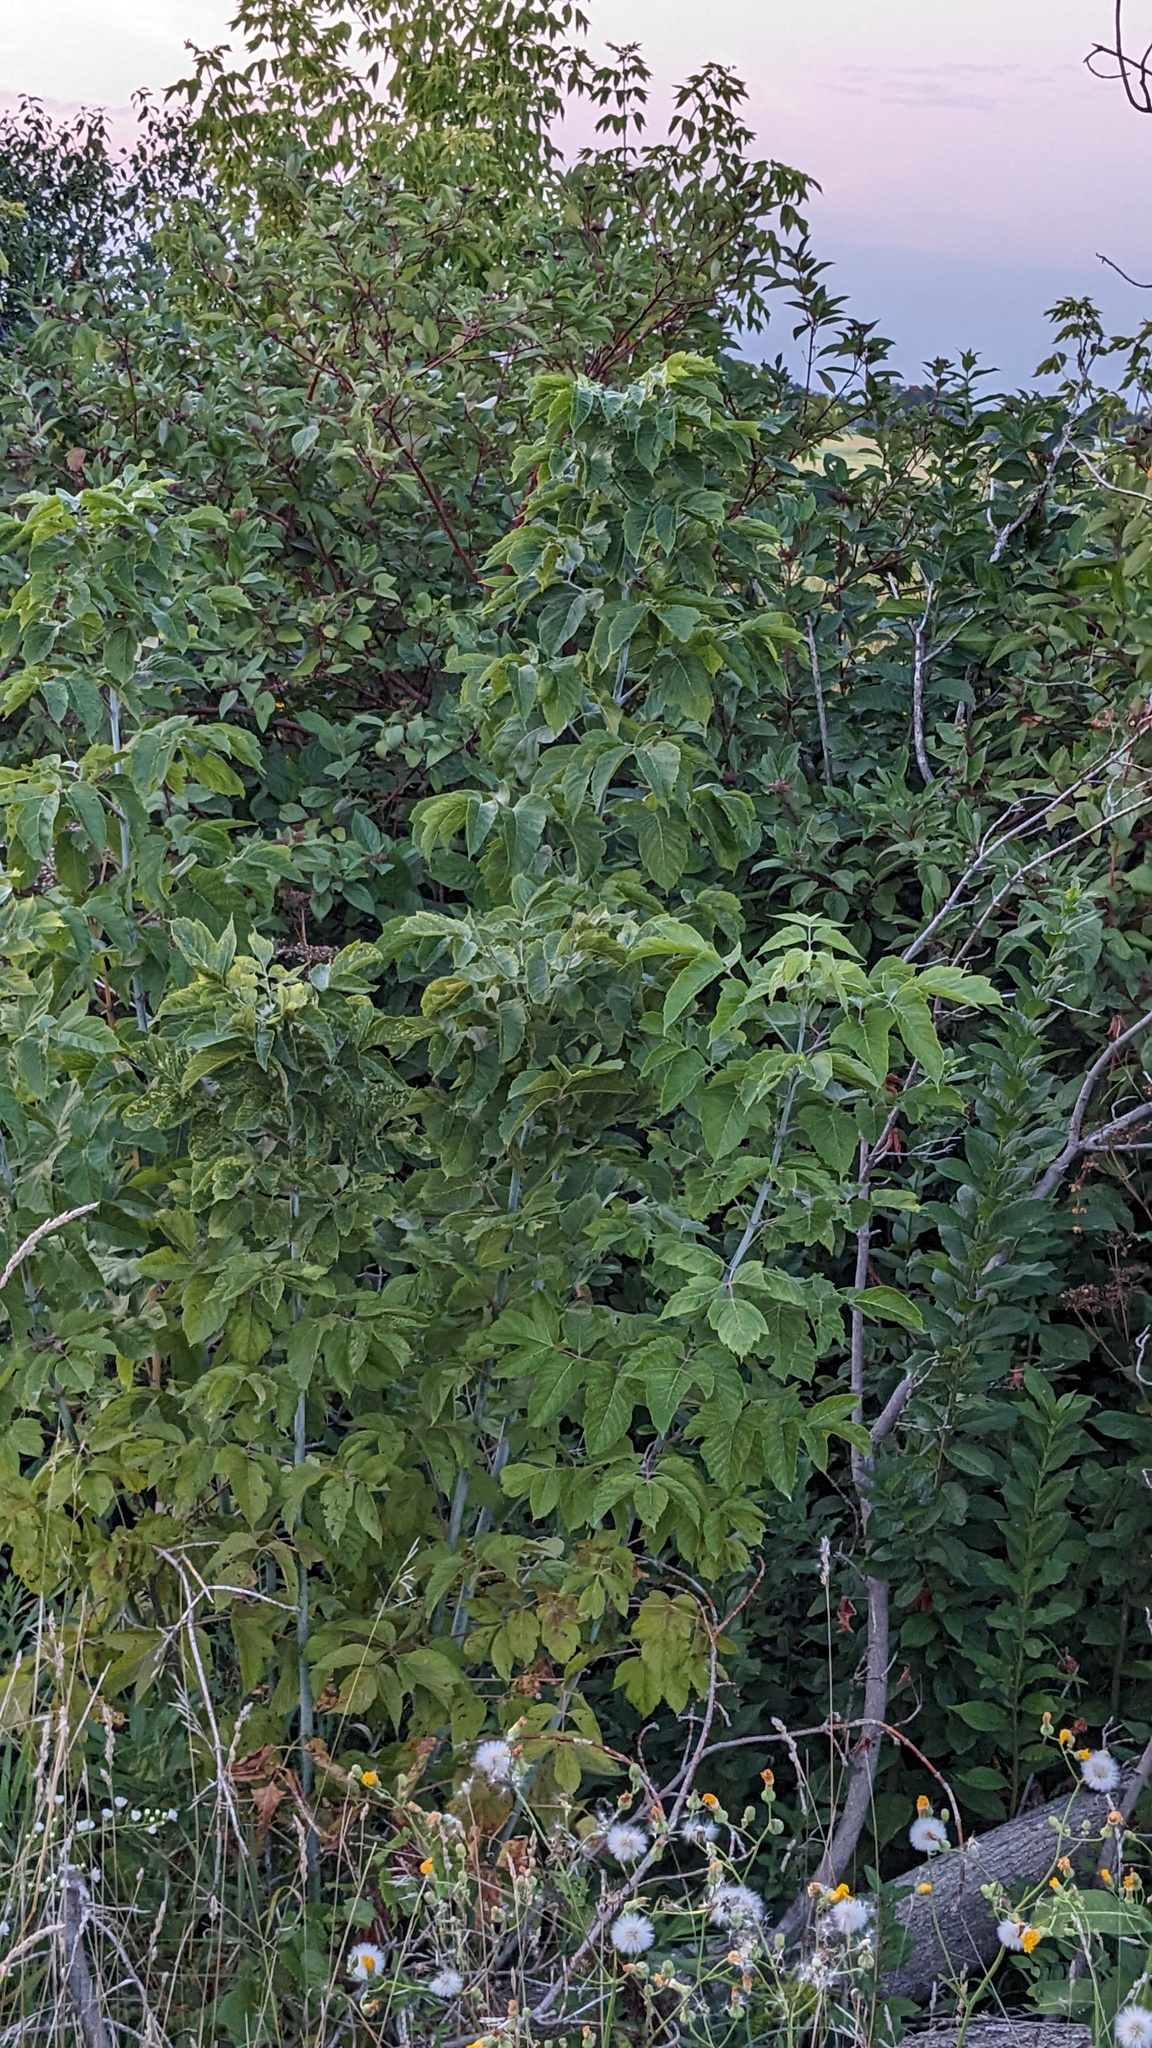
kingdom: Plantae
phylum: Tracheophyta
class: Magnoliopsida
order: Sapindales
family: Sapindaceae
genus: Acer
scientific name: Acer negundo
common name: Ashleaf maple
